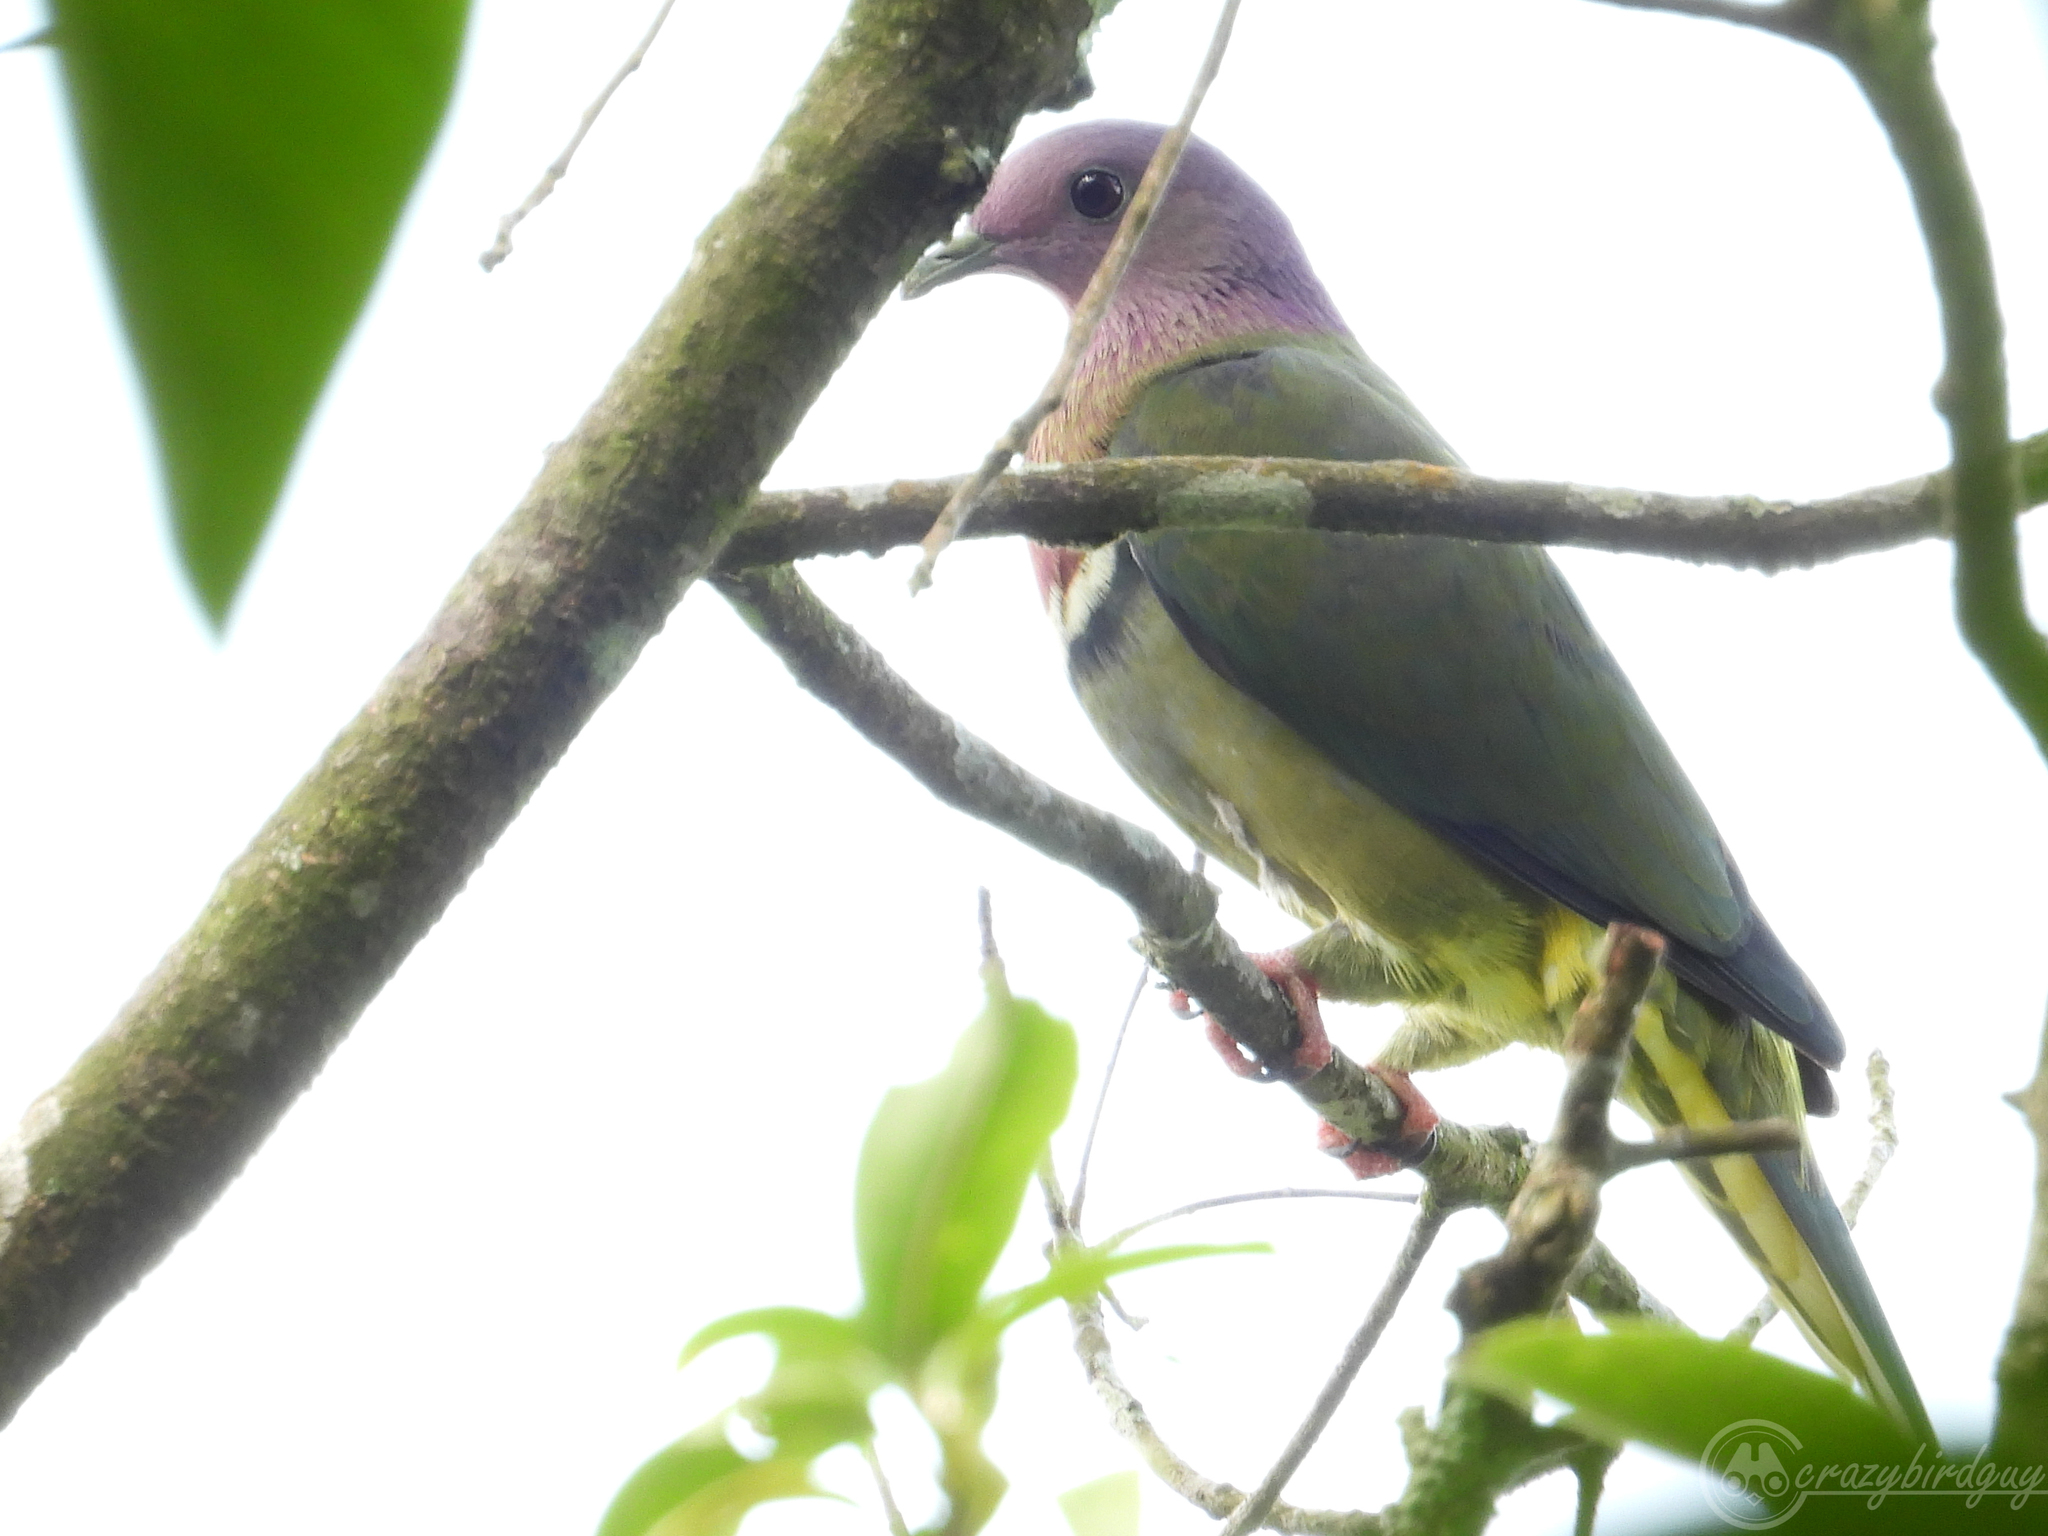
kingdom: Animalia
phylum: Chordata
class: Aves
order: Columbiformes
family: Columbidae
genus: Ptilinopus
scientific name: Ptilinopus porphyreus
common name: Pink-headed fruit dove
